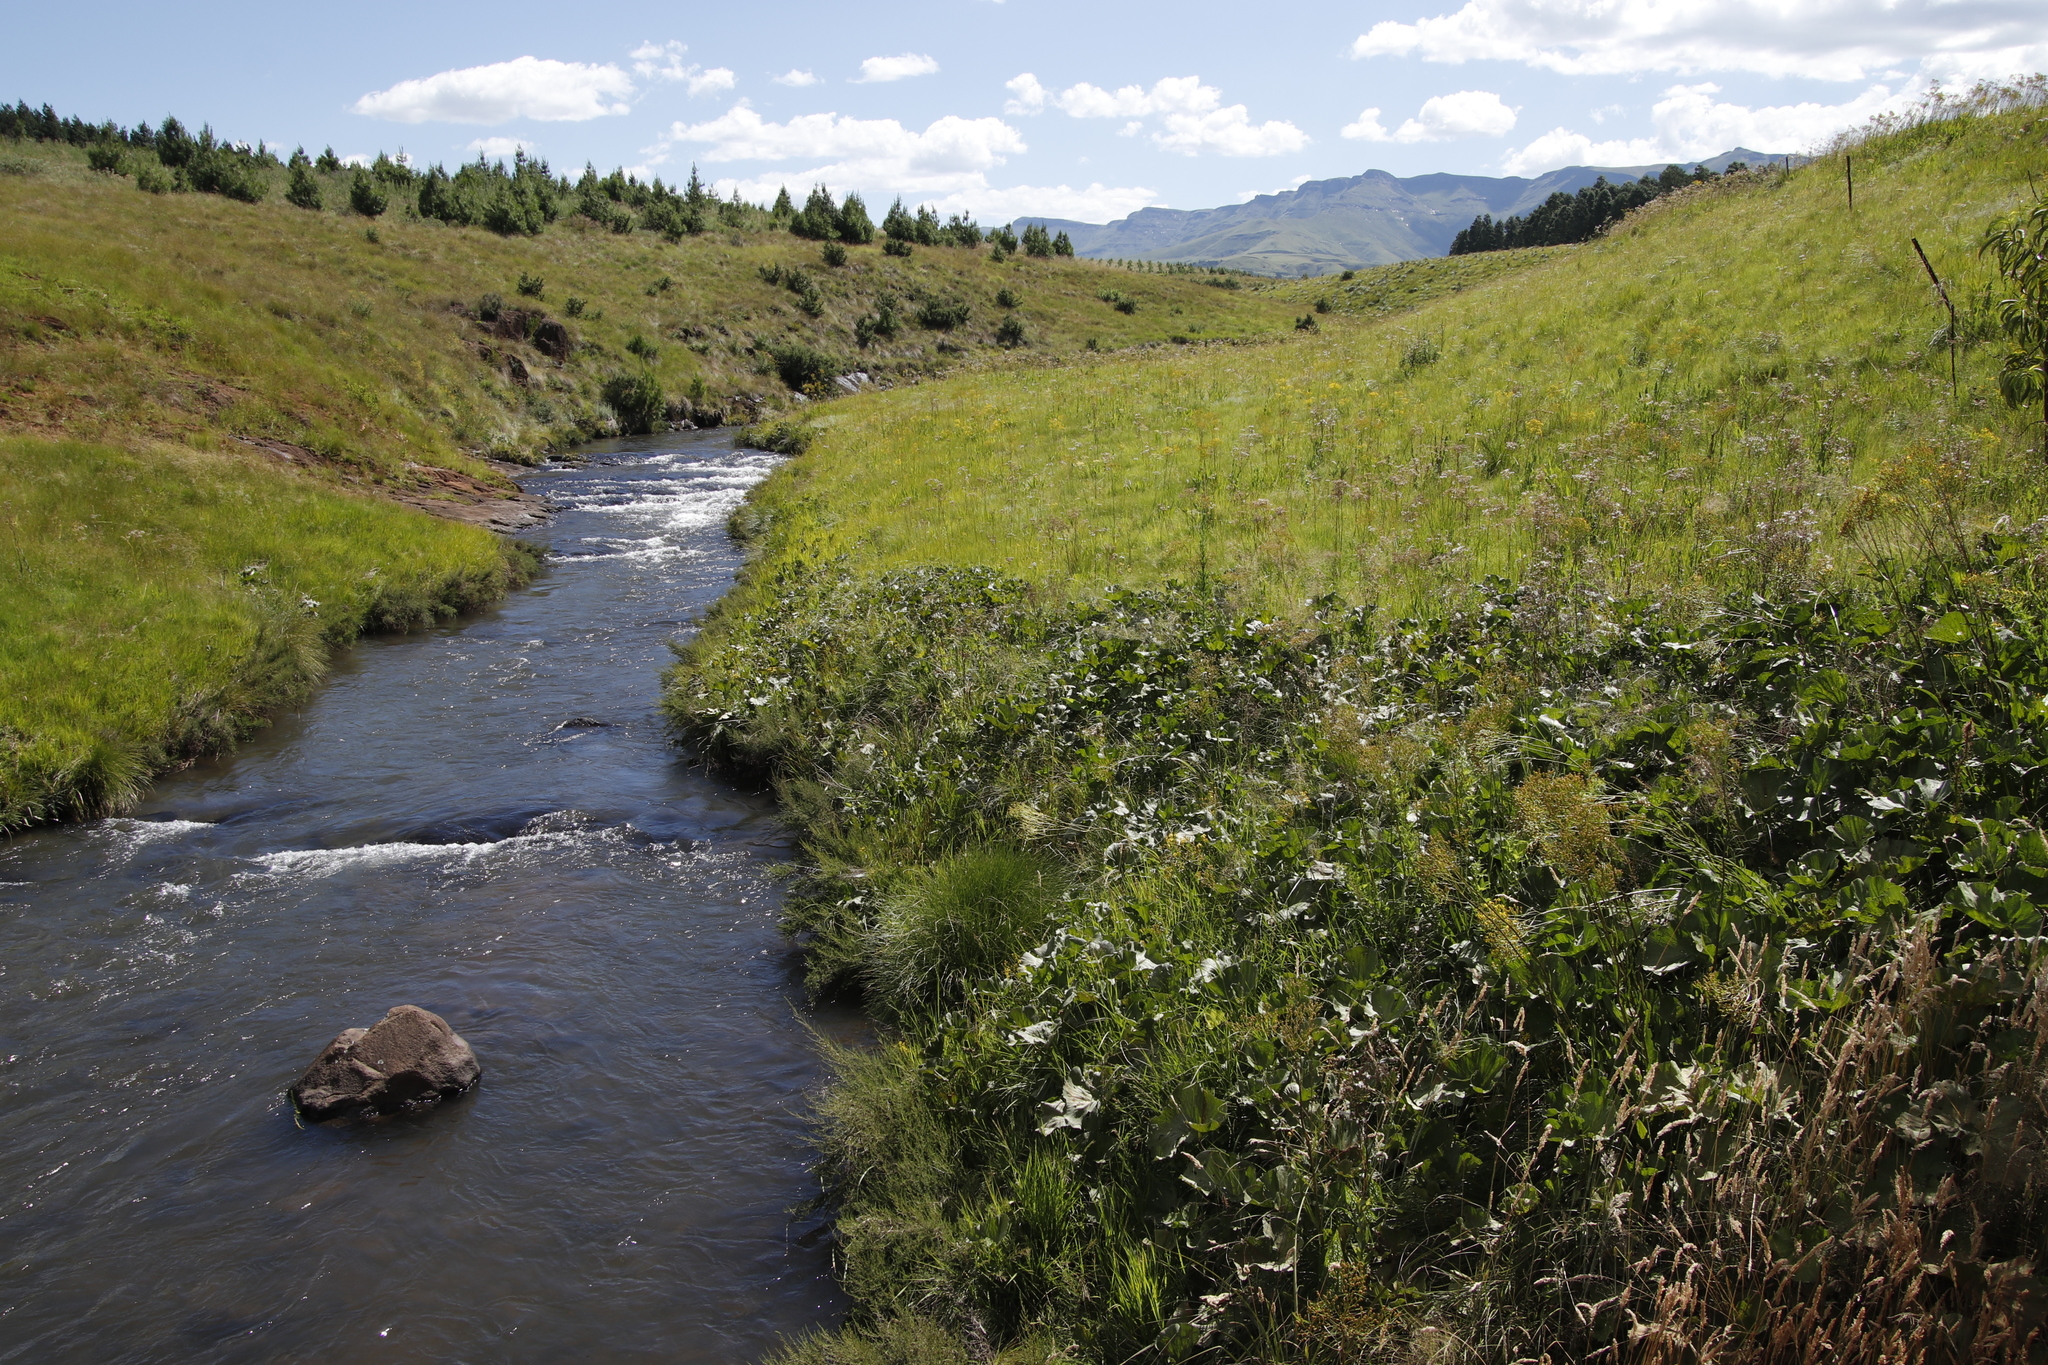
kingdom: Plantae
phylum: Tracheophyta
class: Magnoliopsida
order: Gunnerales
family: Gunneraceae
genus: Gunnera
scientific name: Gunnera perpensa
